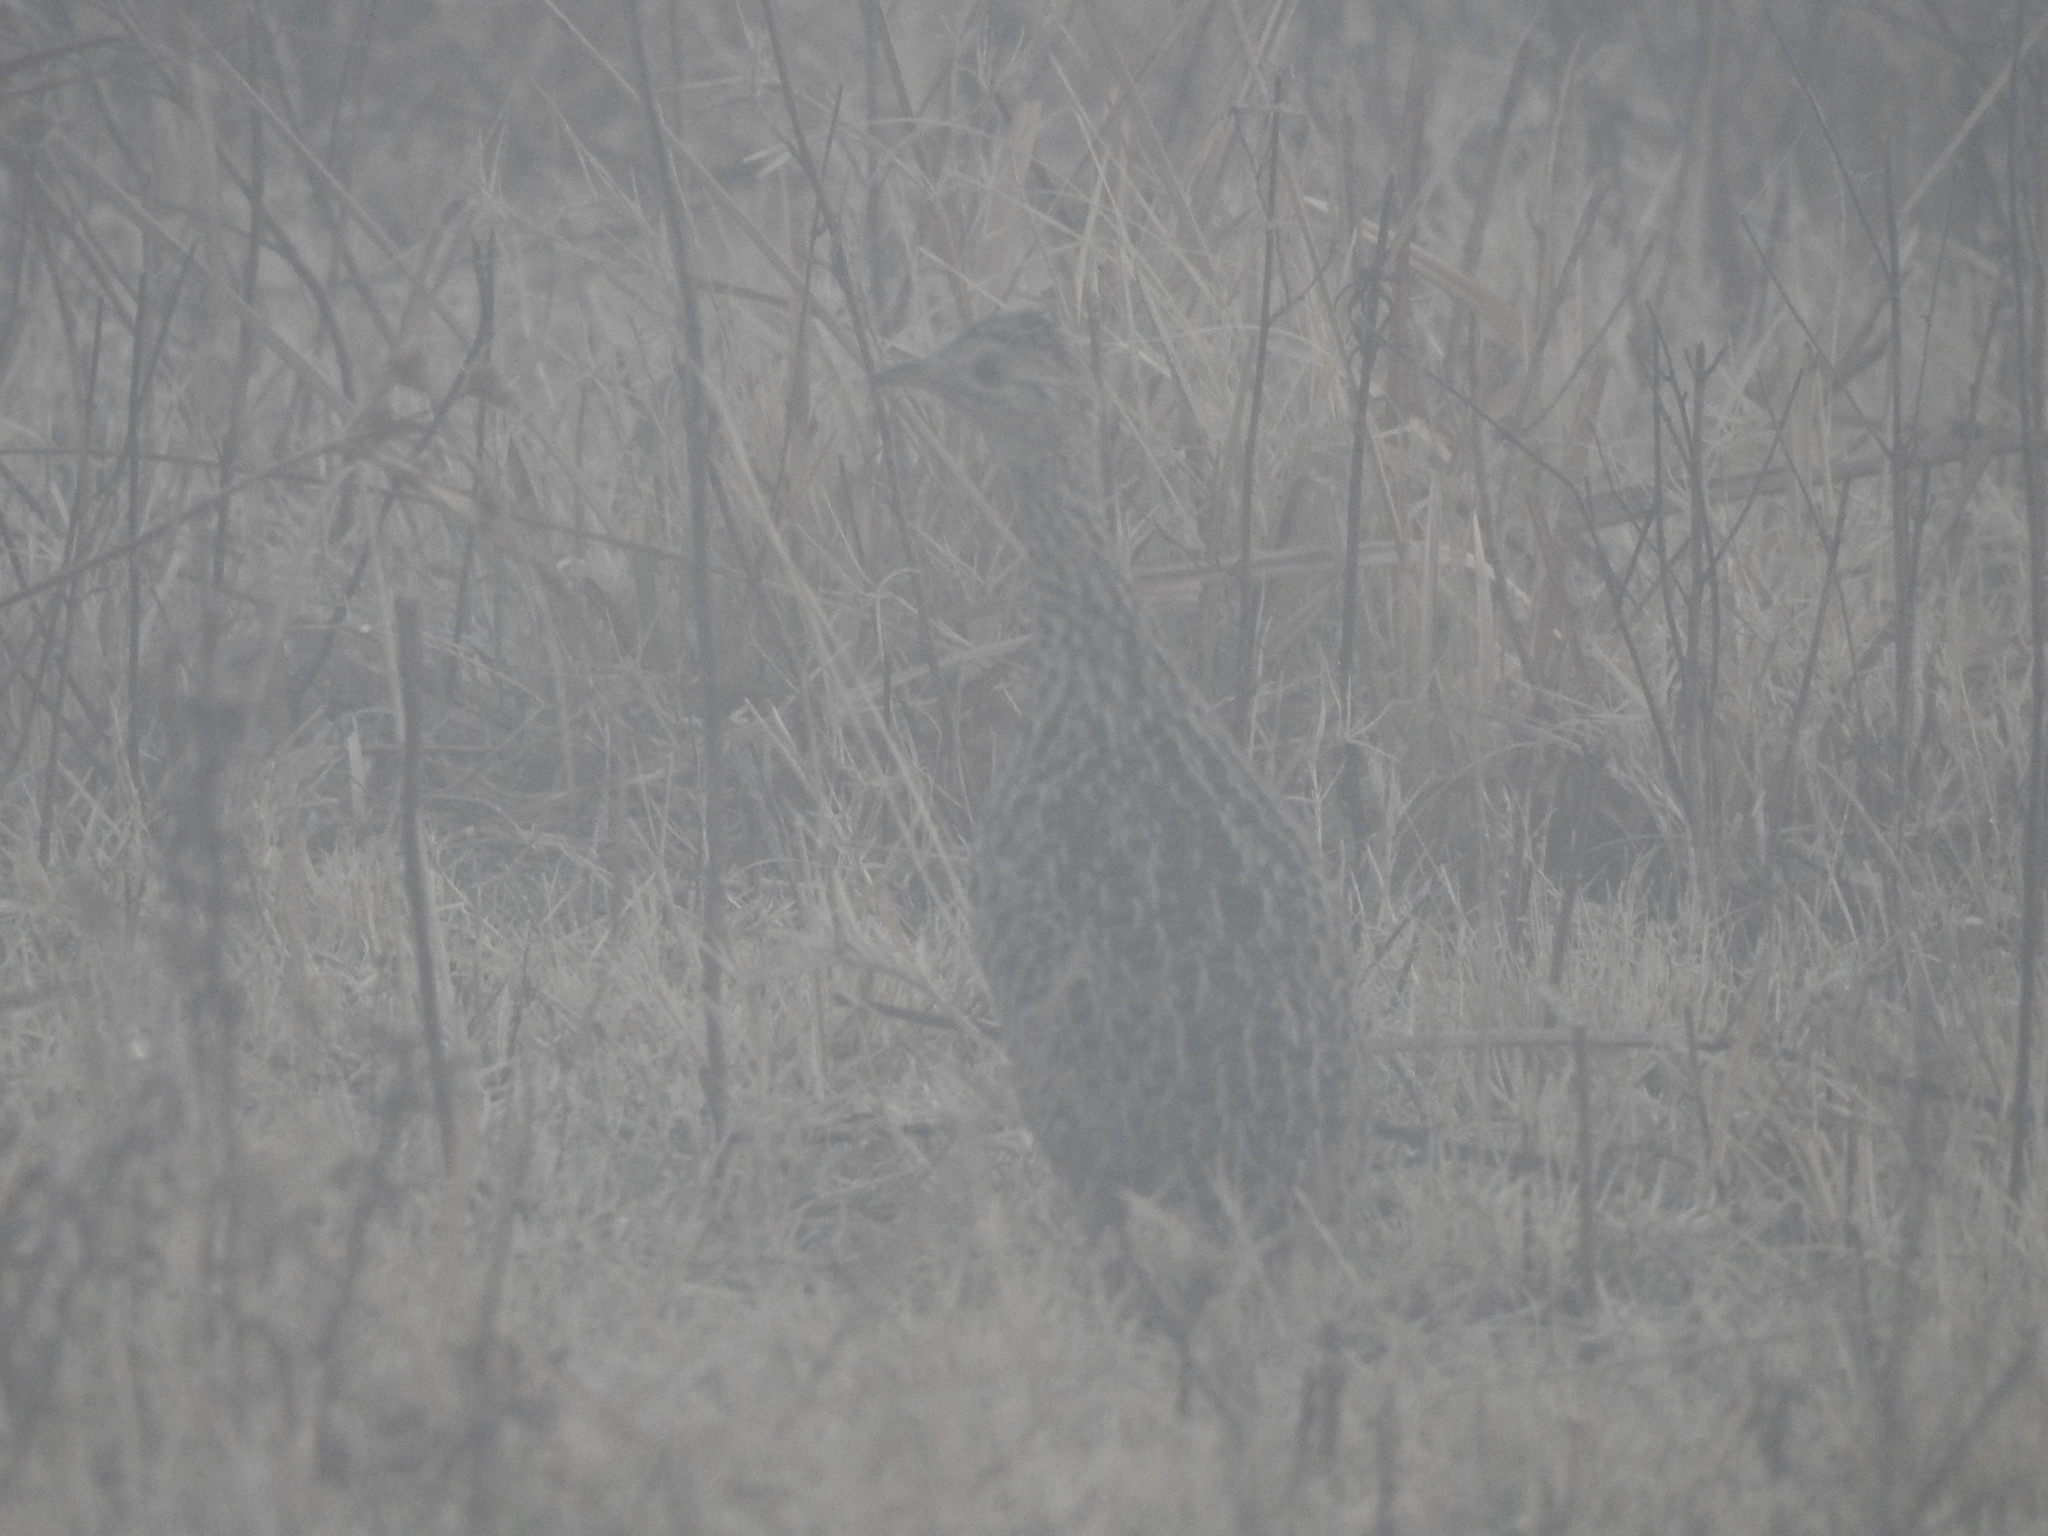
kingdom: Animalia
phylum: Chordata
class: Aves
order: Tinamiformes
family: Tinamidae
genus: Nothura
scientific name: Nothura maculosa
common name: Spotted nothura
